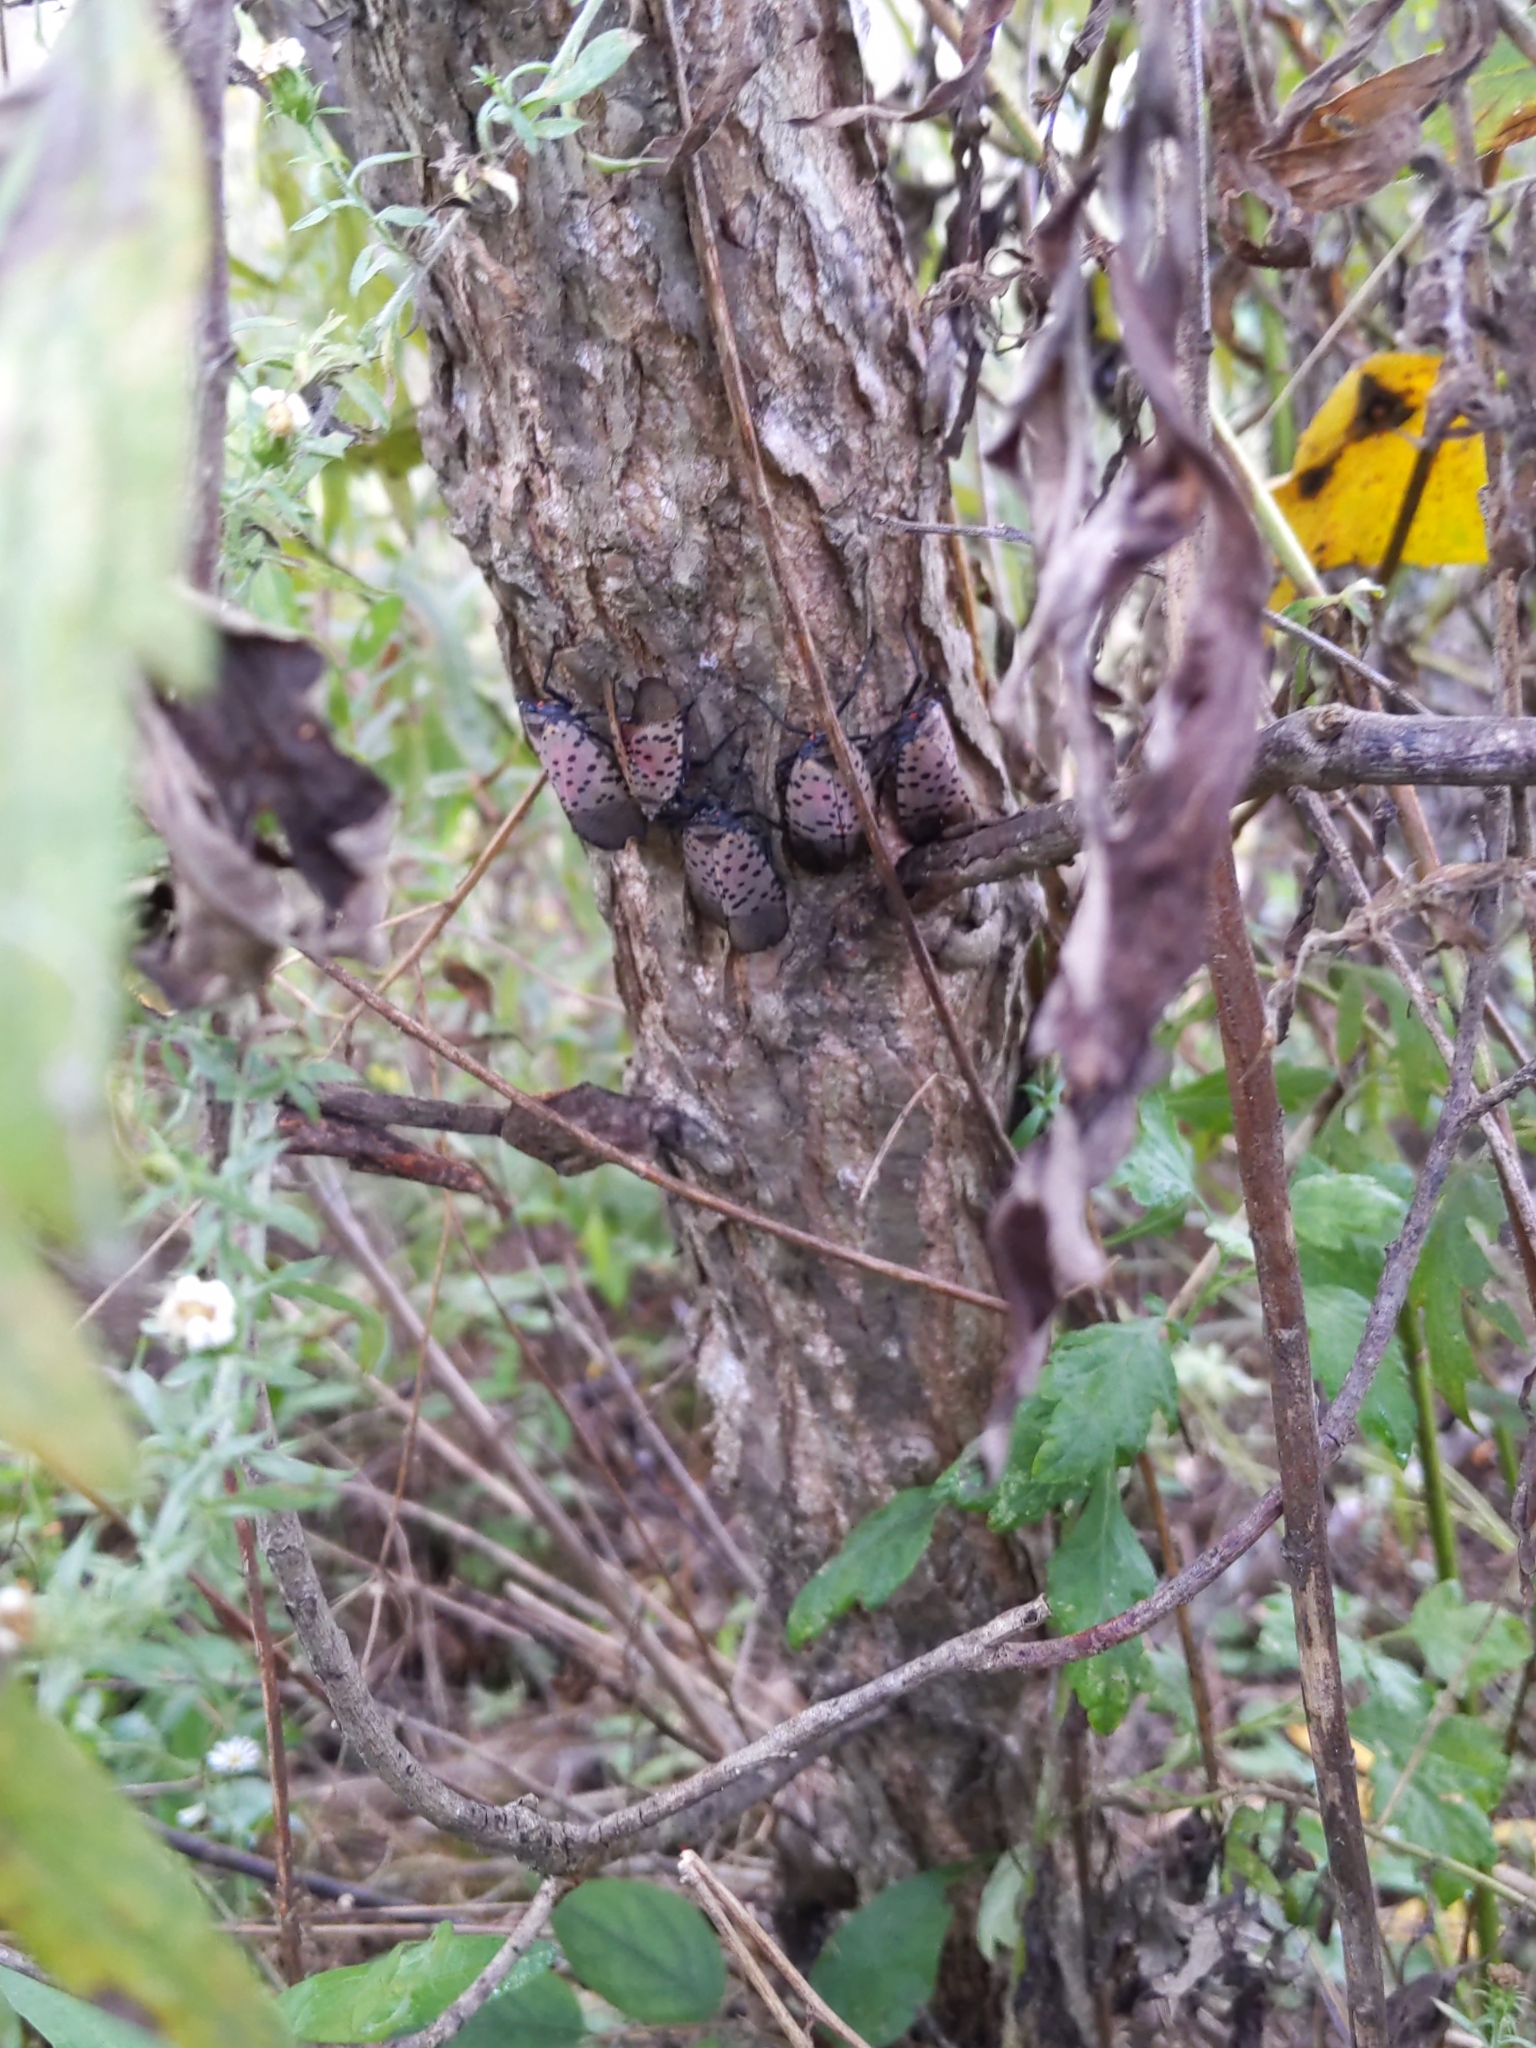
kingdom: Animalia
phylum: Arthropoda
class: Insecta
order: Hemiptera
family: Fulgoridae
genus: Lycorma
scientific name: Lycorma delicatula
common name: Spotted lanternfly
